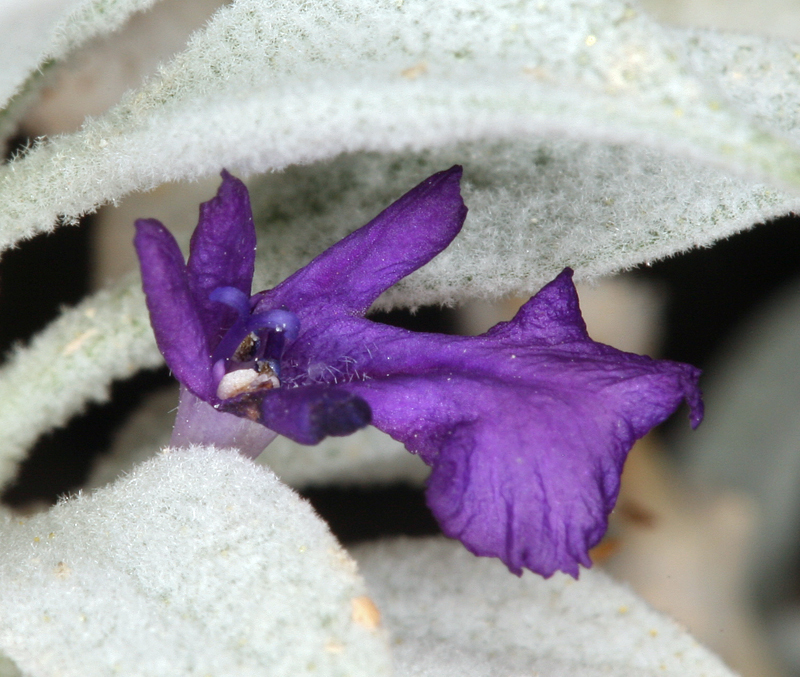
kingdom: Plantae
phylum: Tracheophyta
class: Magnoliopsida
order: Lamiales
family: Lamiaceae
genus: Salvia
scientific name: Salvia funerea
